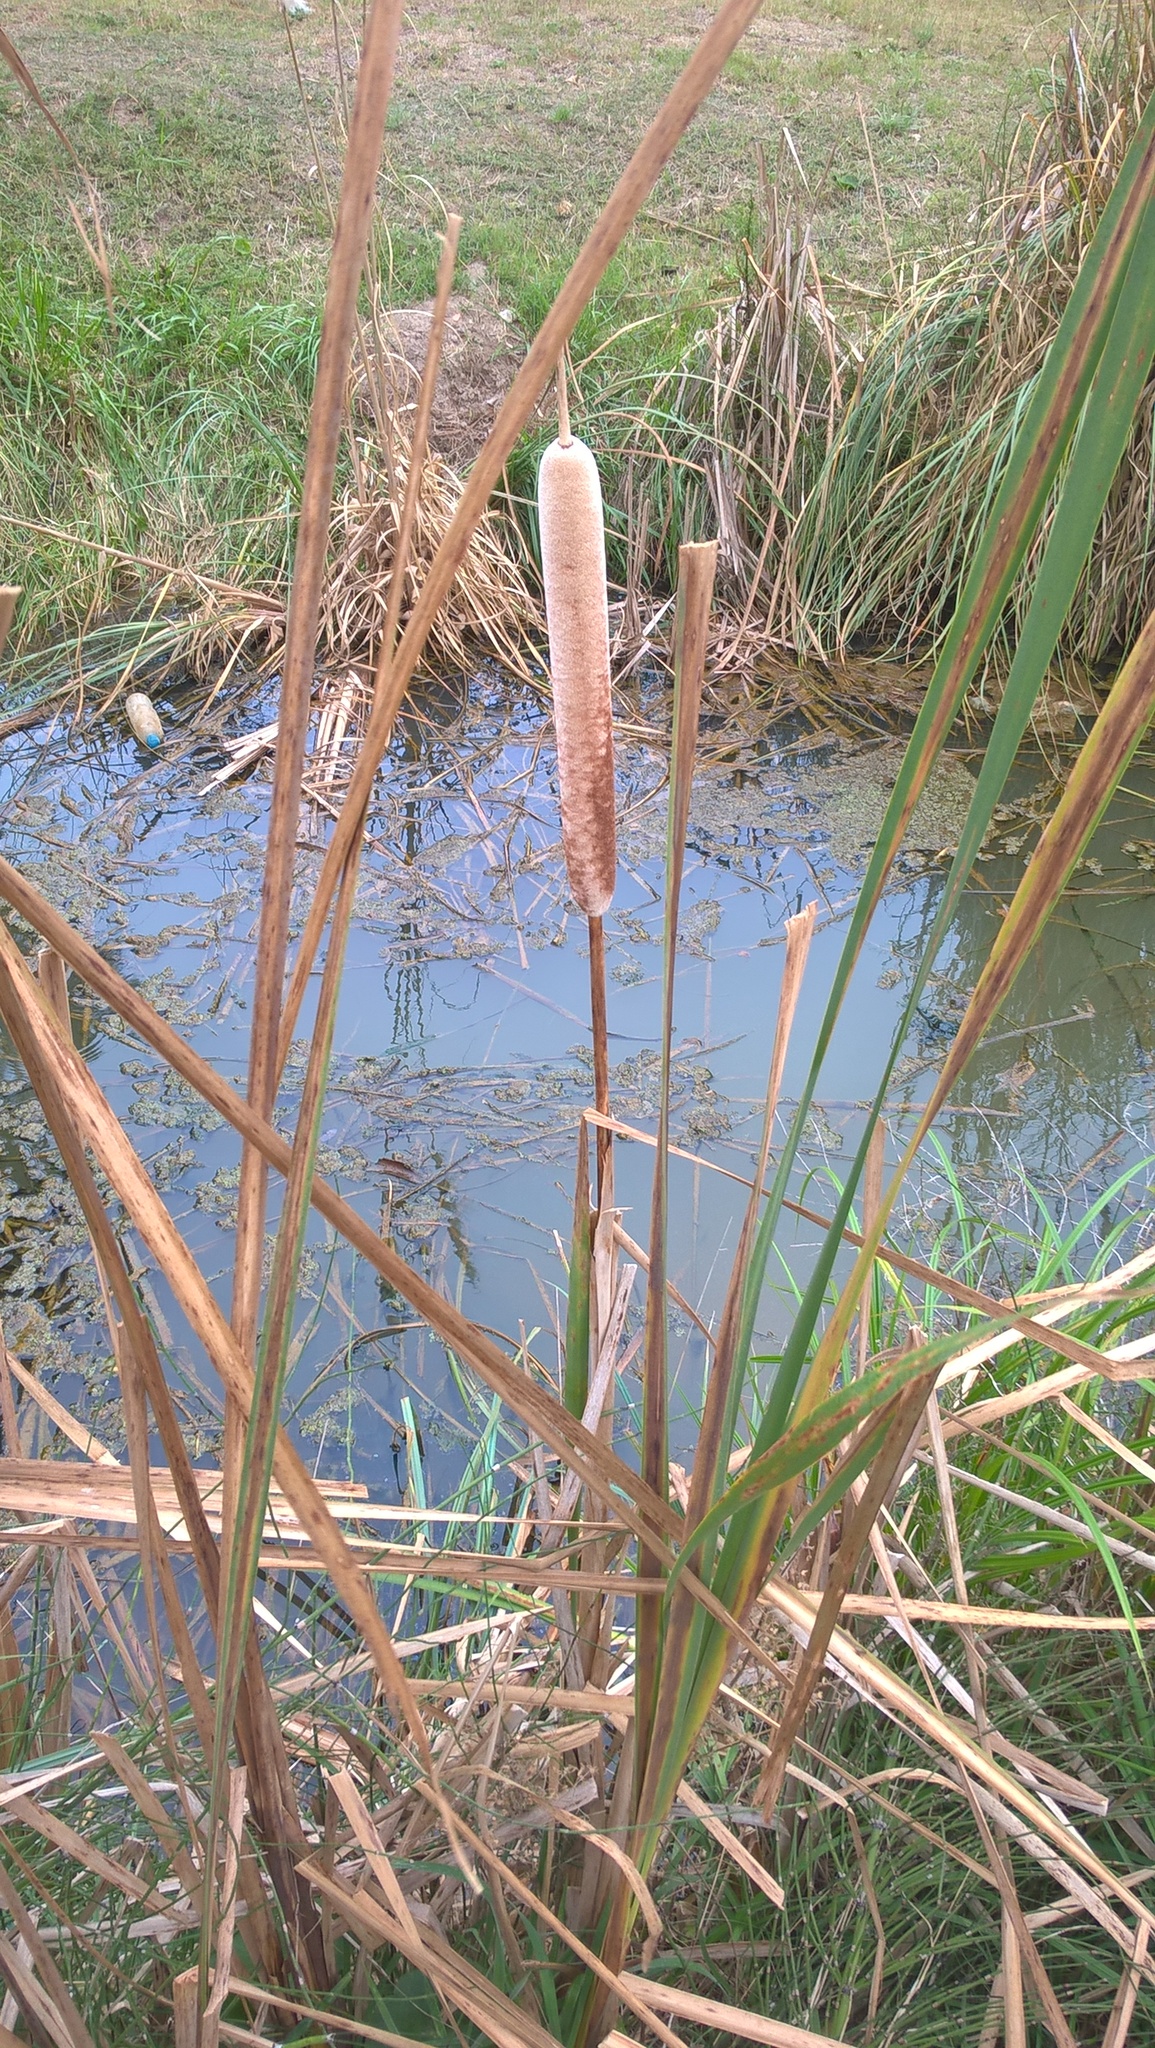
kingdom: Plantae
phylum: Tracheophyta
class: Liliopsida
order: Poales
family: Typhaceae
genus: Typha
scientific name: Typha latifolia
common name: Broadleaf cattail
